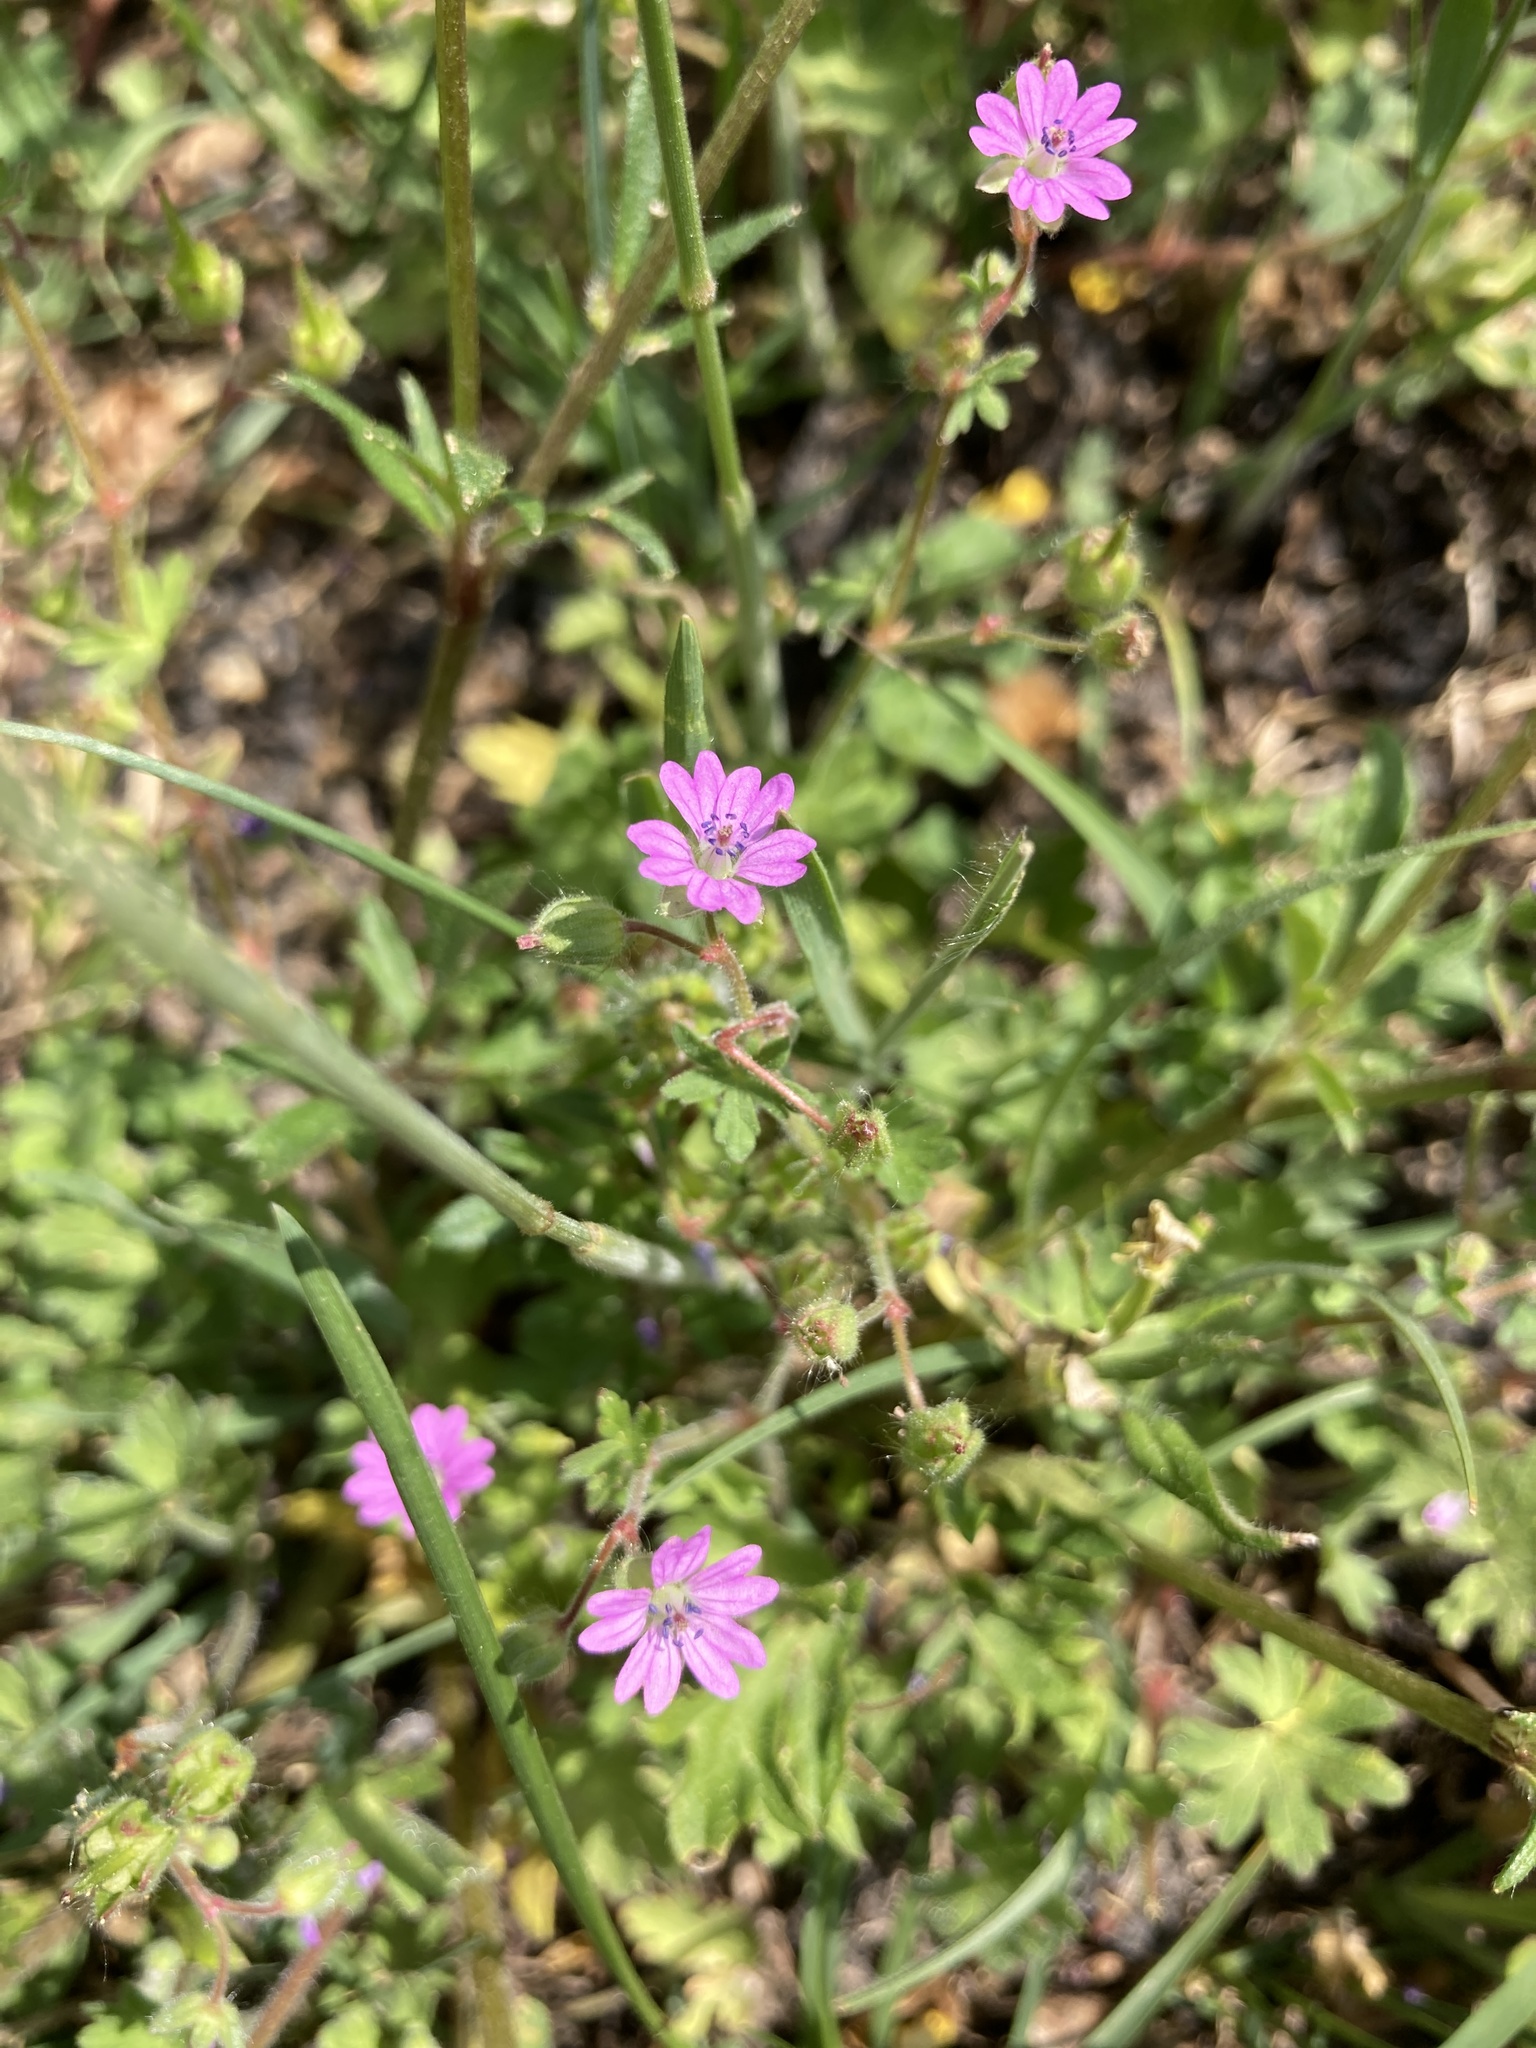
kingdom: Plantae
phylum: Tracheophyta
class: Magnoliopsida
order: Geraniales
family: Geraniaceae
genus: Geranium
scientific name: Geranium molle
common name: Dove's-foot crane's-bill
